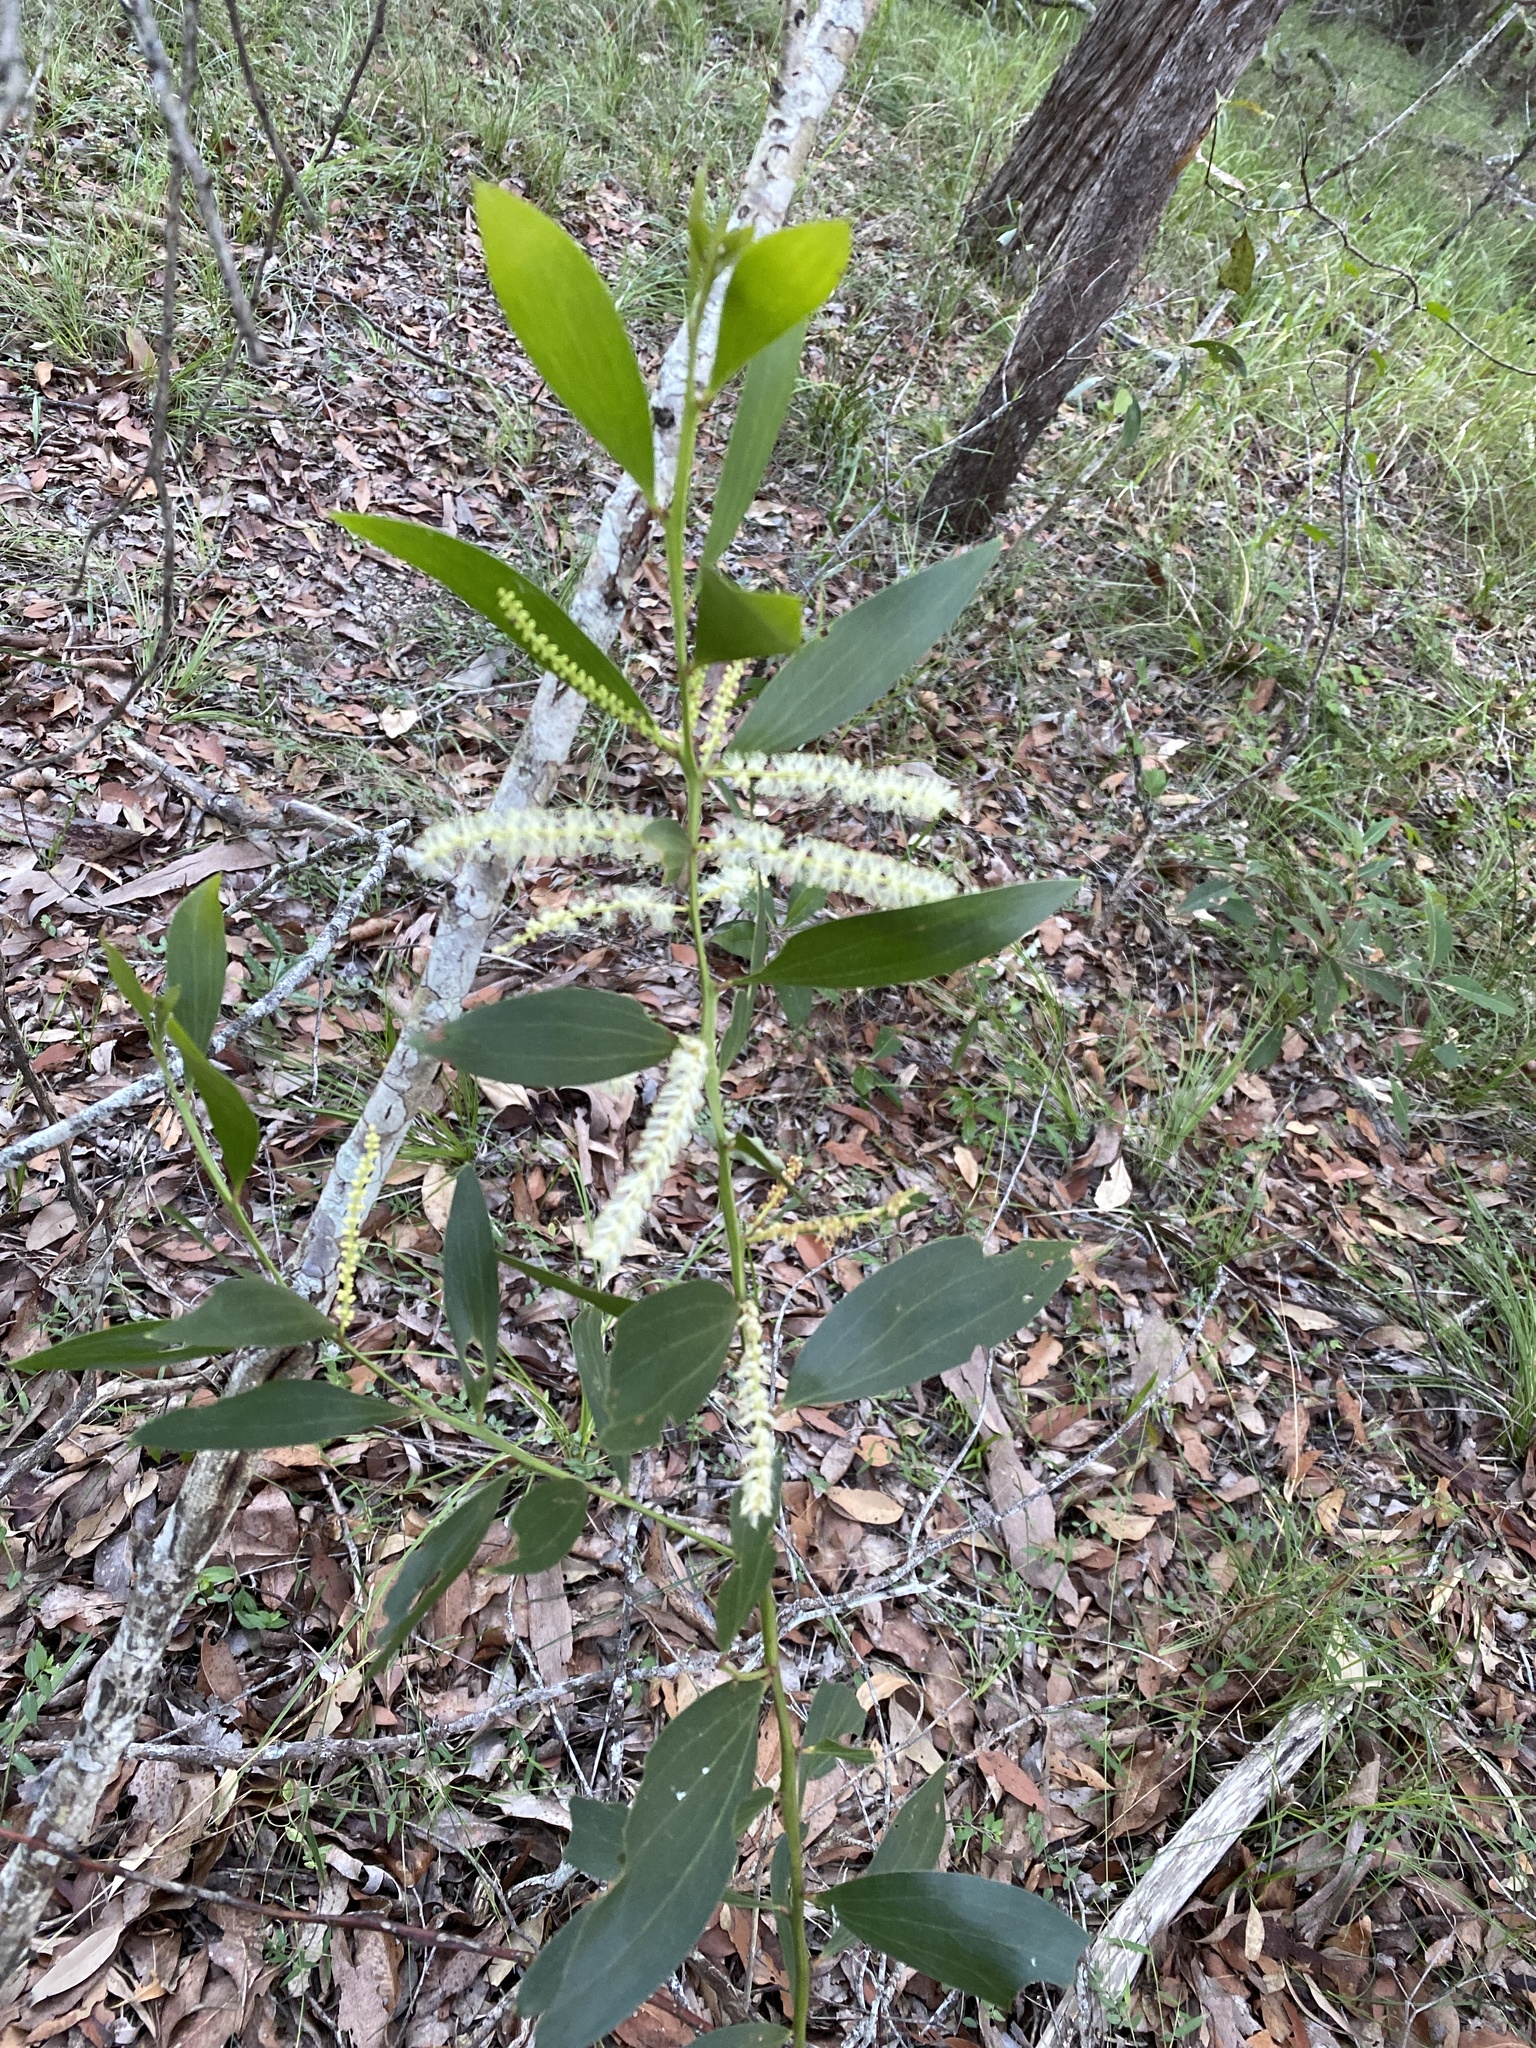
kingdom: Plantae
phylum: Tracheophyta
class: Magnoliopsida
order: Fabales
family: Fabaceae
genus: Acacia
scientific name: Acacia leiocalyx
